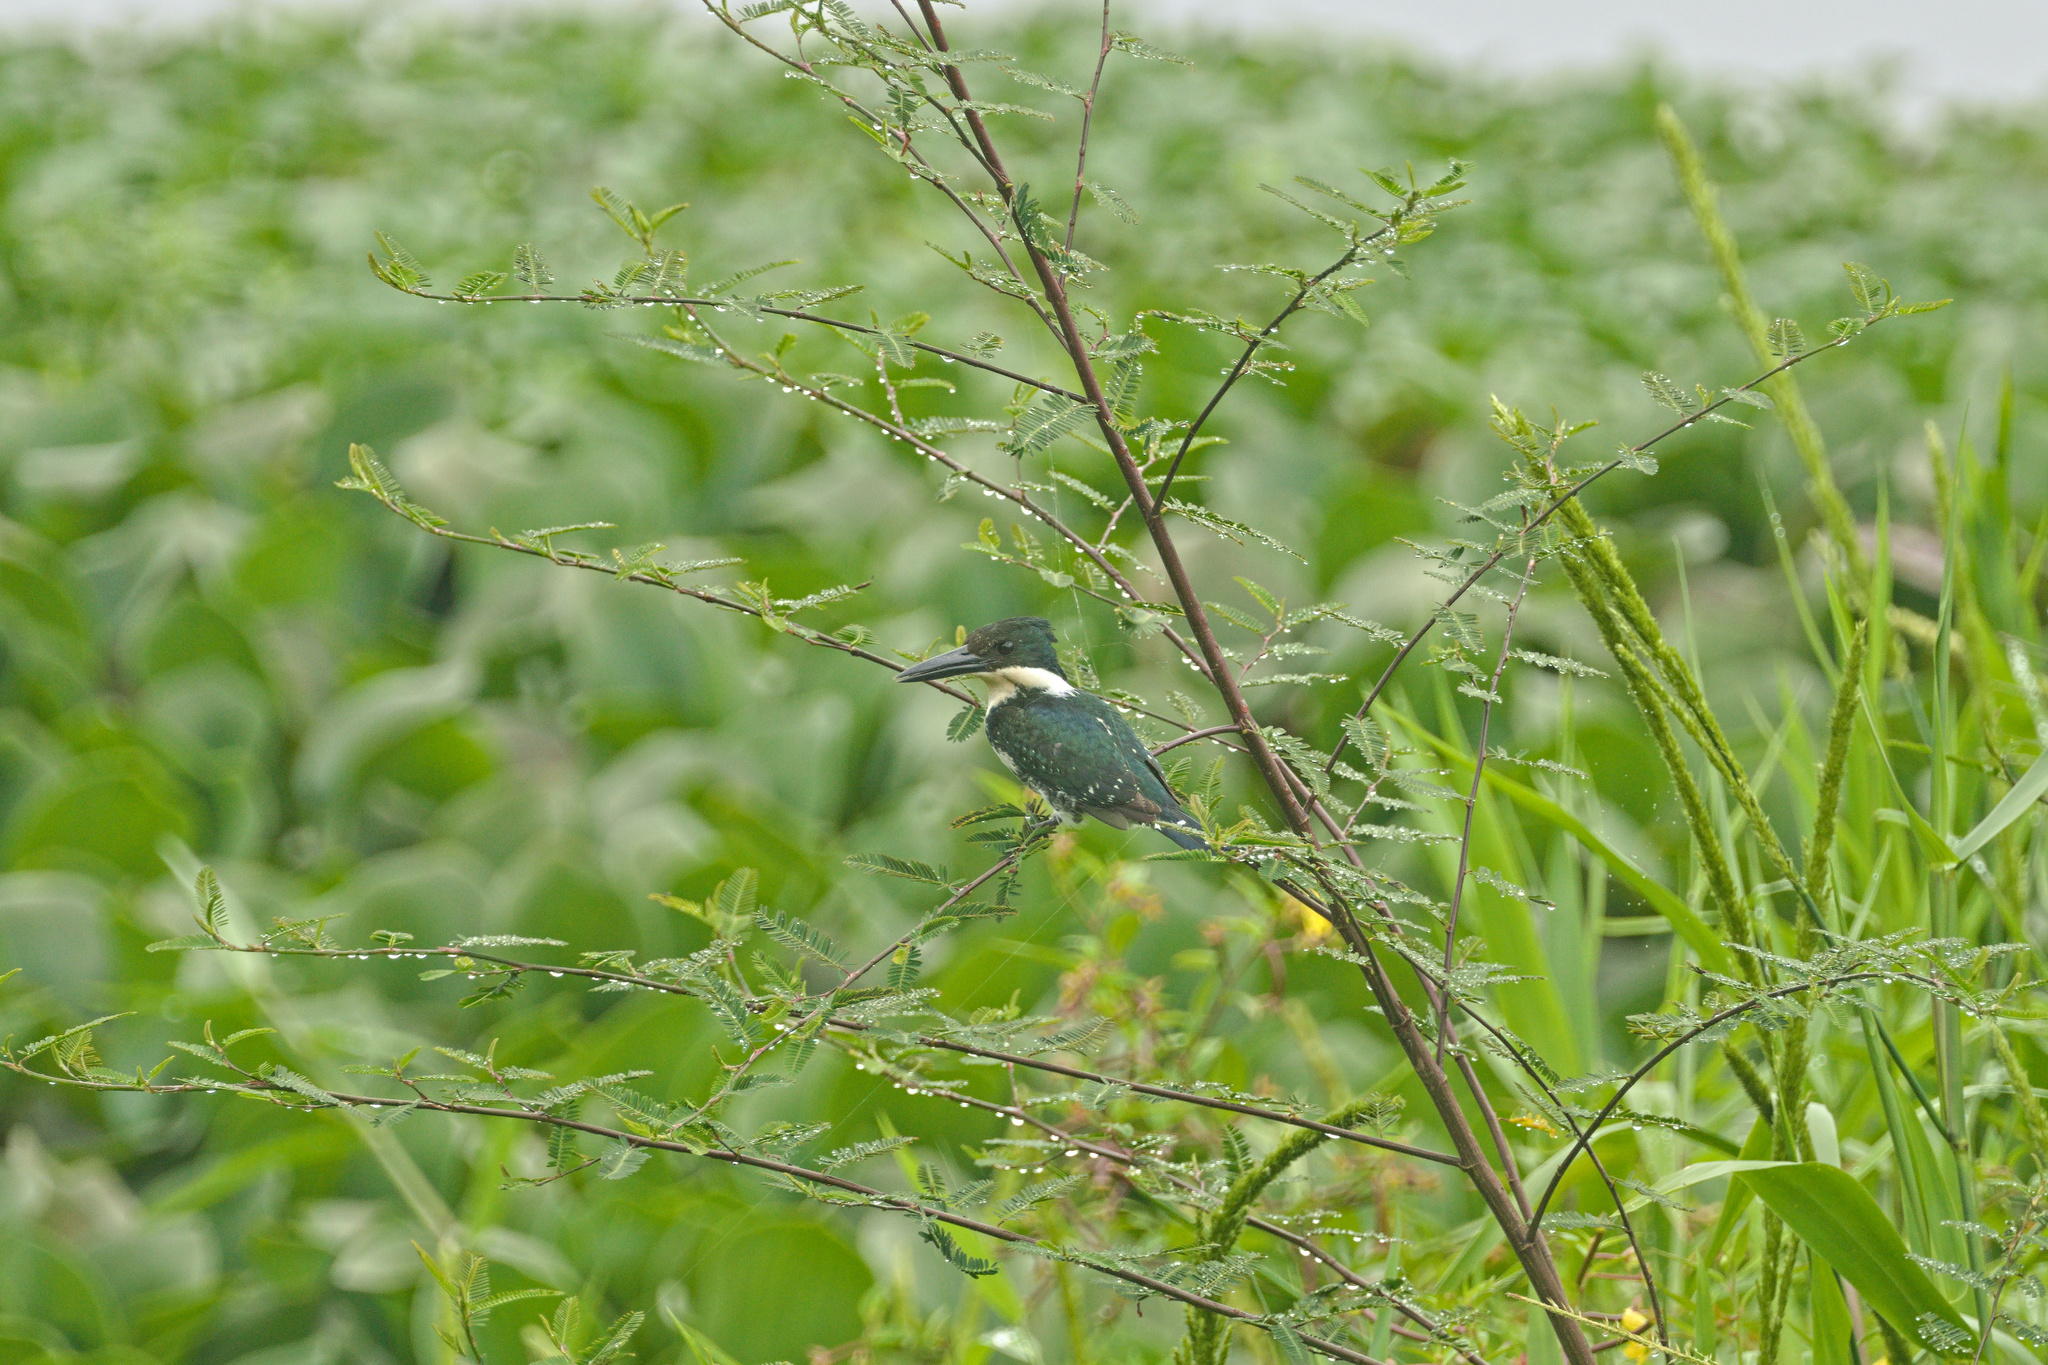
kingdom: Animalia
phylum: Chordata
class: Aves
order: Coraciiformes
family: Alcedinidae
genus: Chloroceryle
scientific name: Chloroceryle americana
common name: Green kingfisher
